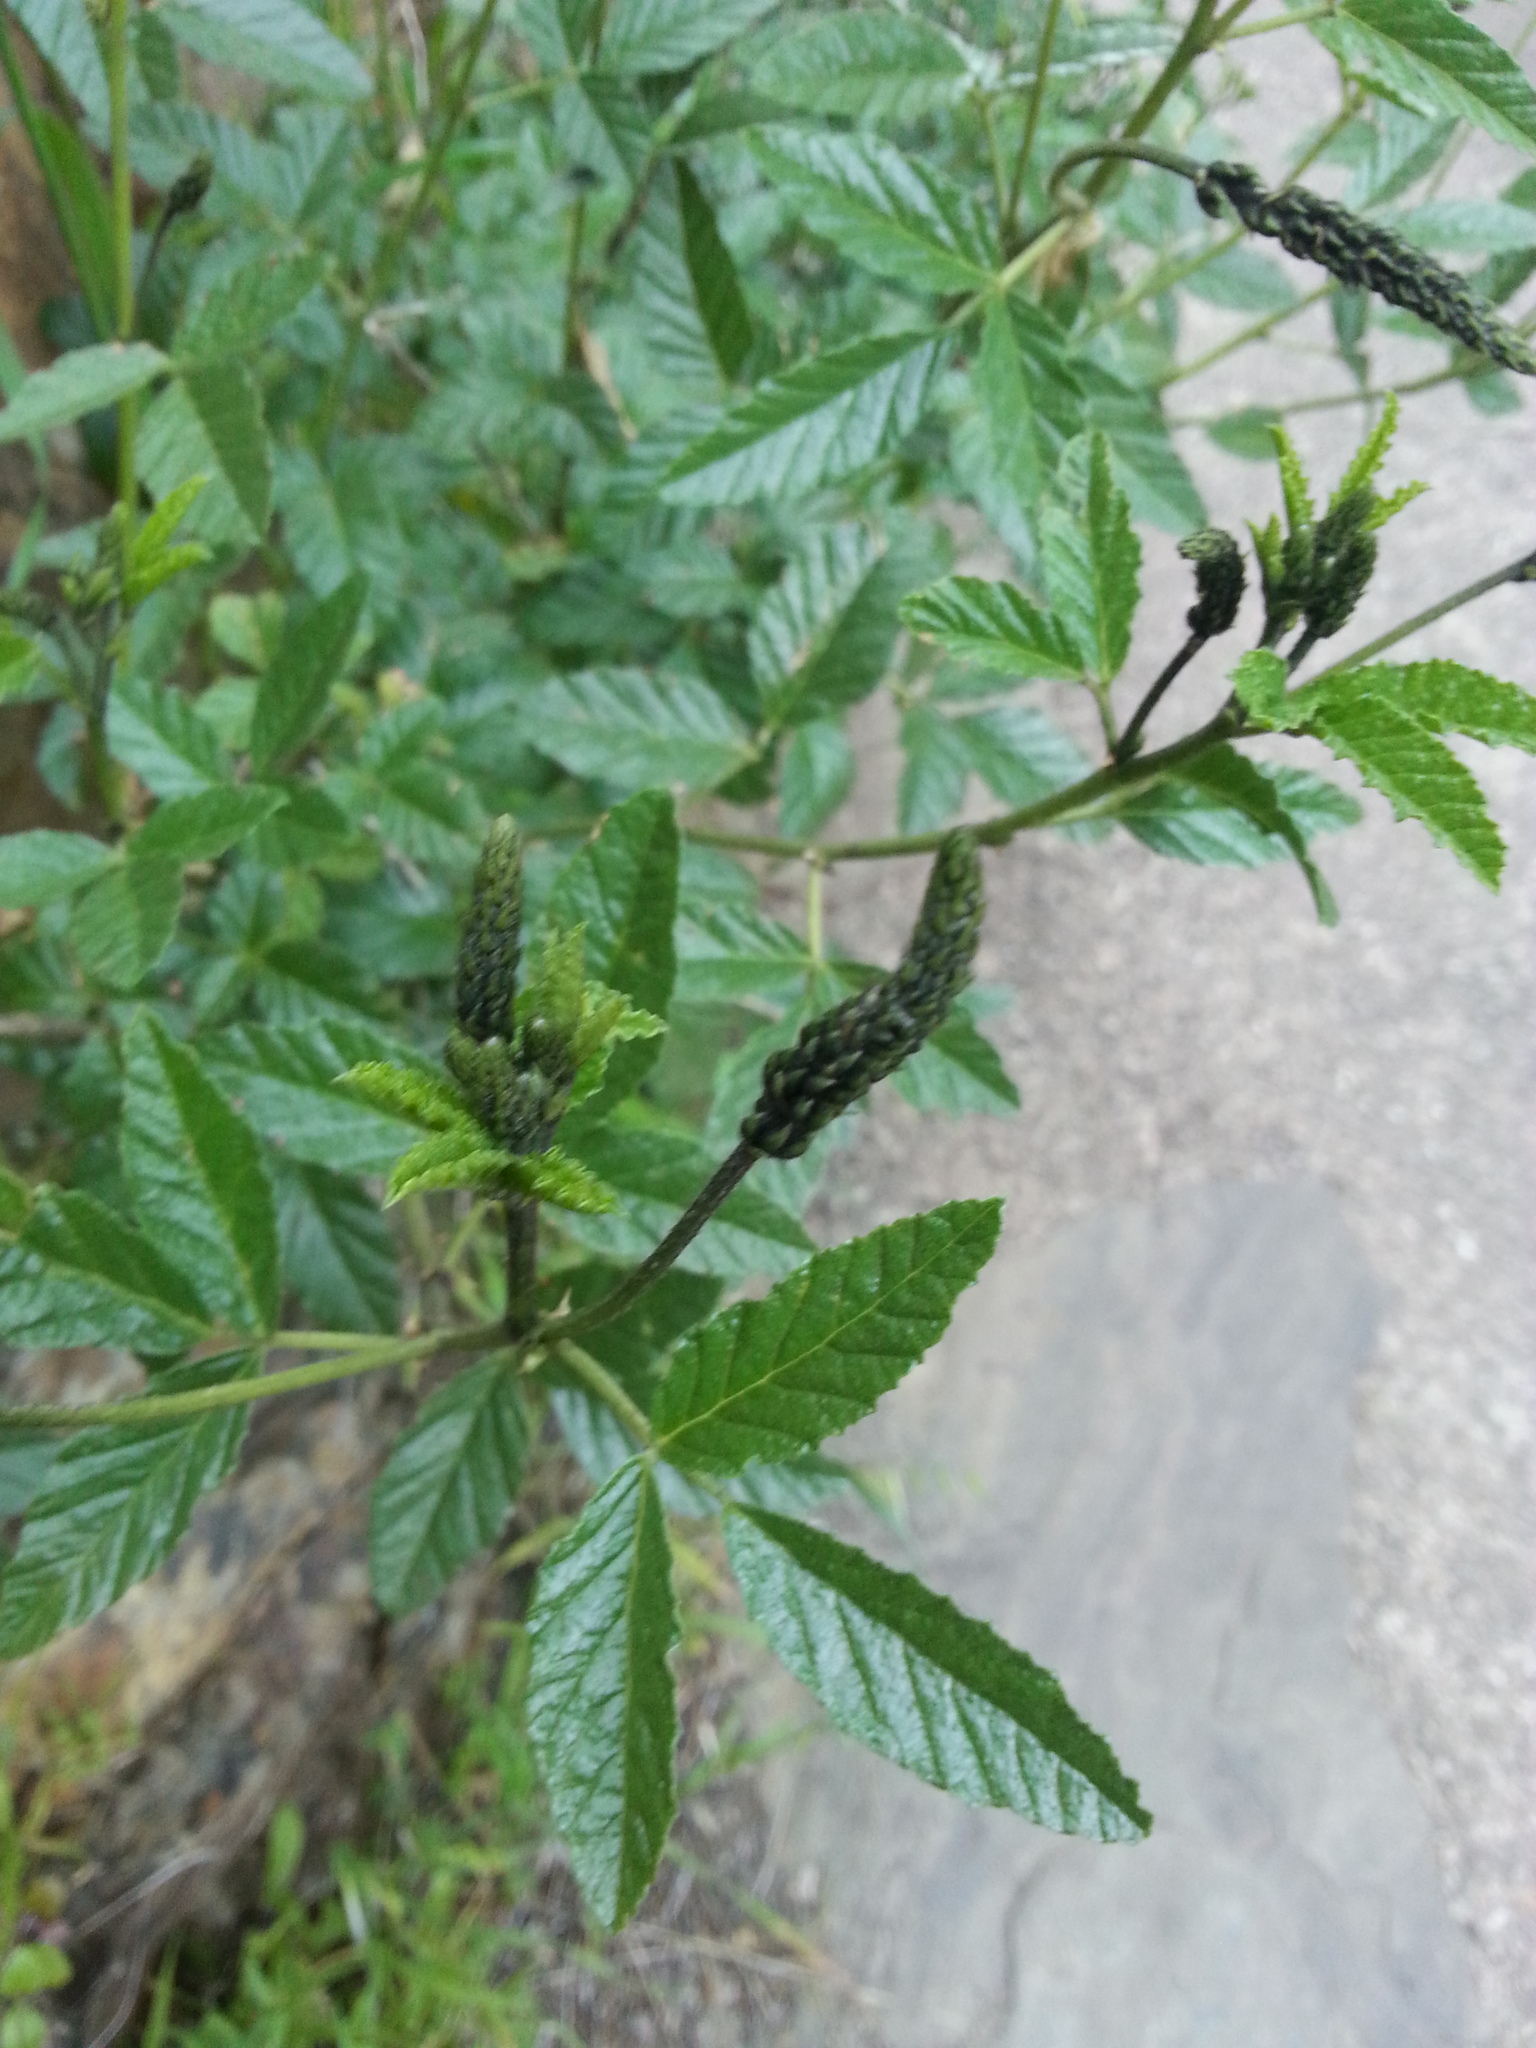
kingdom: Plantae
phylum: Tracheophyta
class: Magnoliopsida
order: Fabales
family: Fabaceae
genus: Cullen
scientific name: Cullen australasicum
